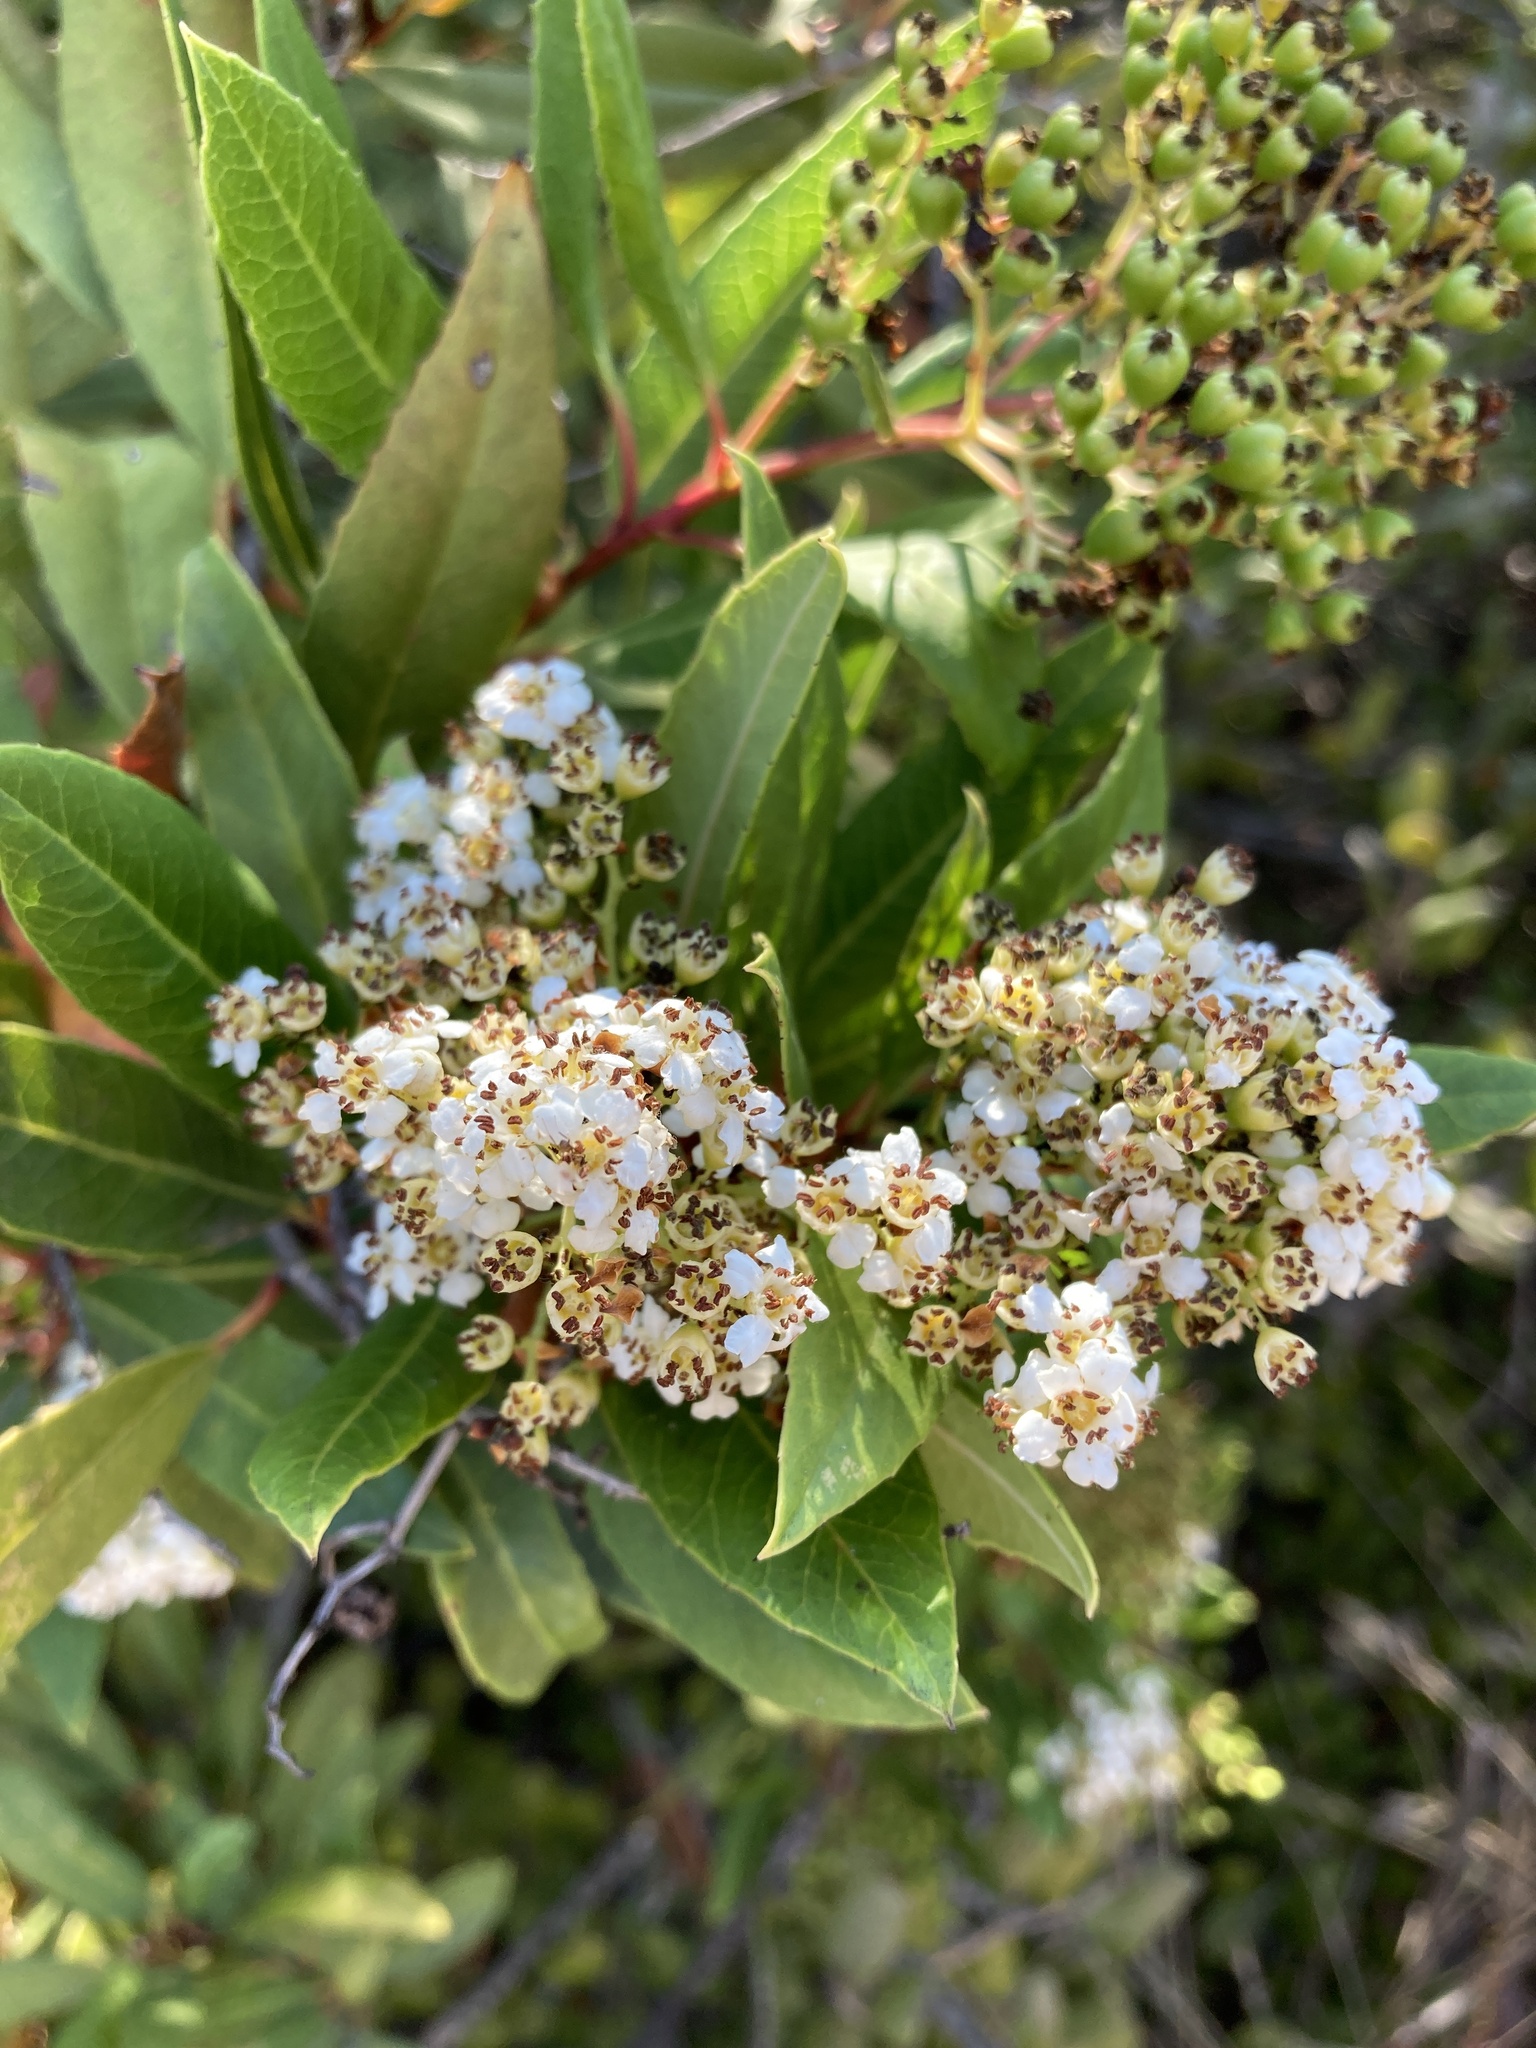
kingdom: Plantae
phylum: Tracheophyta
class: Magnoliopsida
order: Rosales
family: Rosaceae
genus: Heteromeles
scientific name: Heteromeles arbutifolia
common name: California-holly
